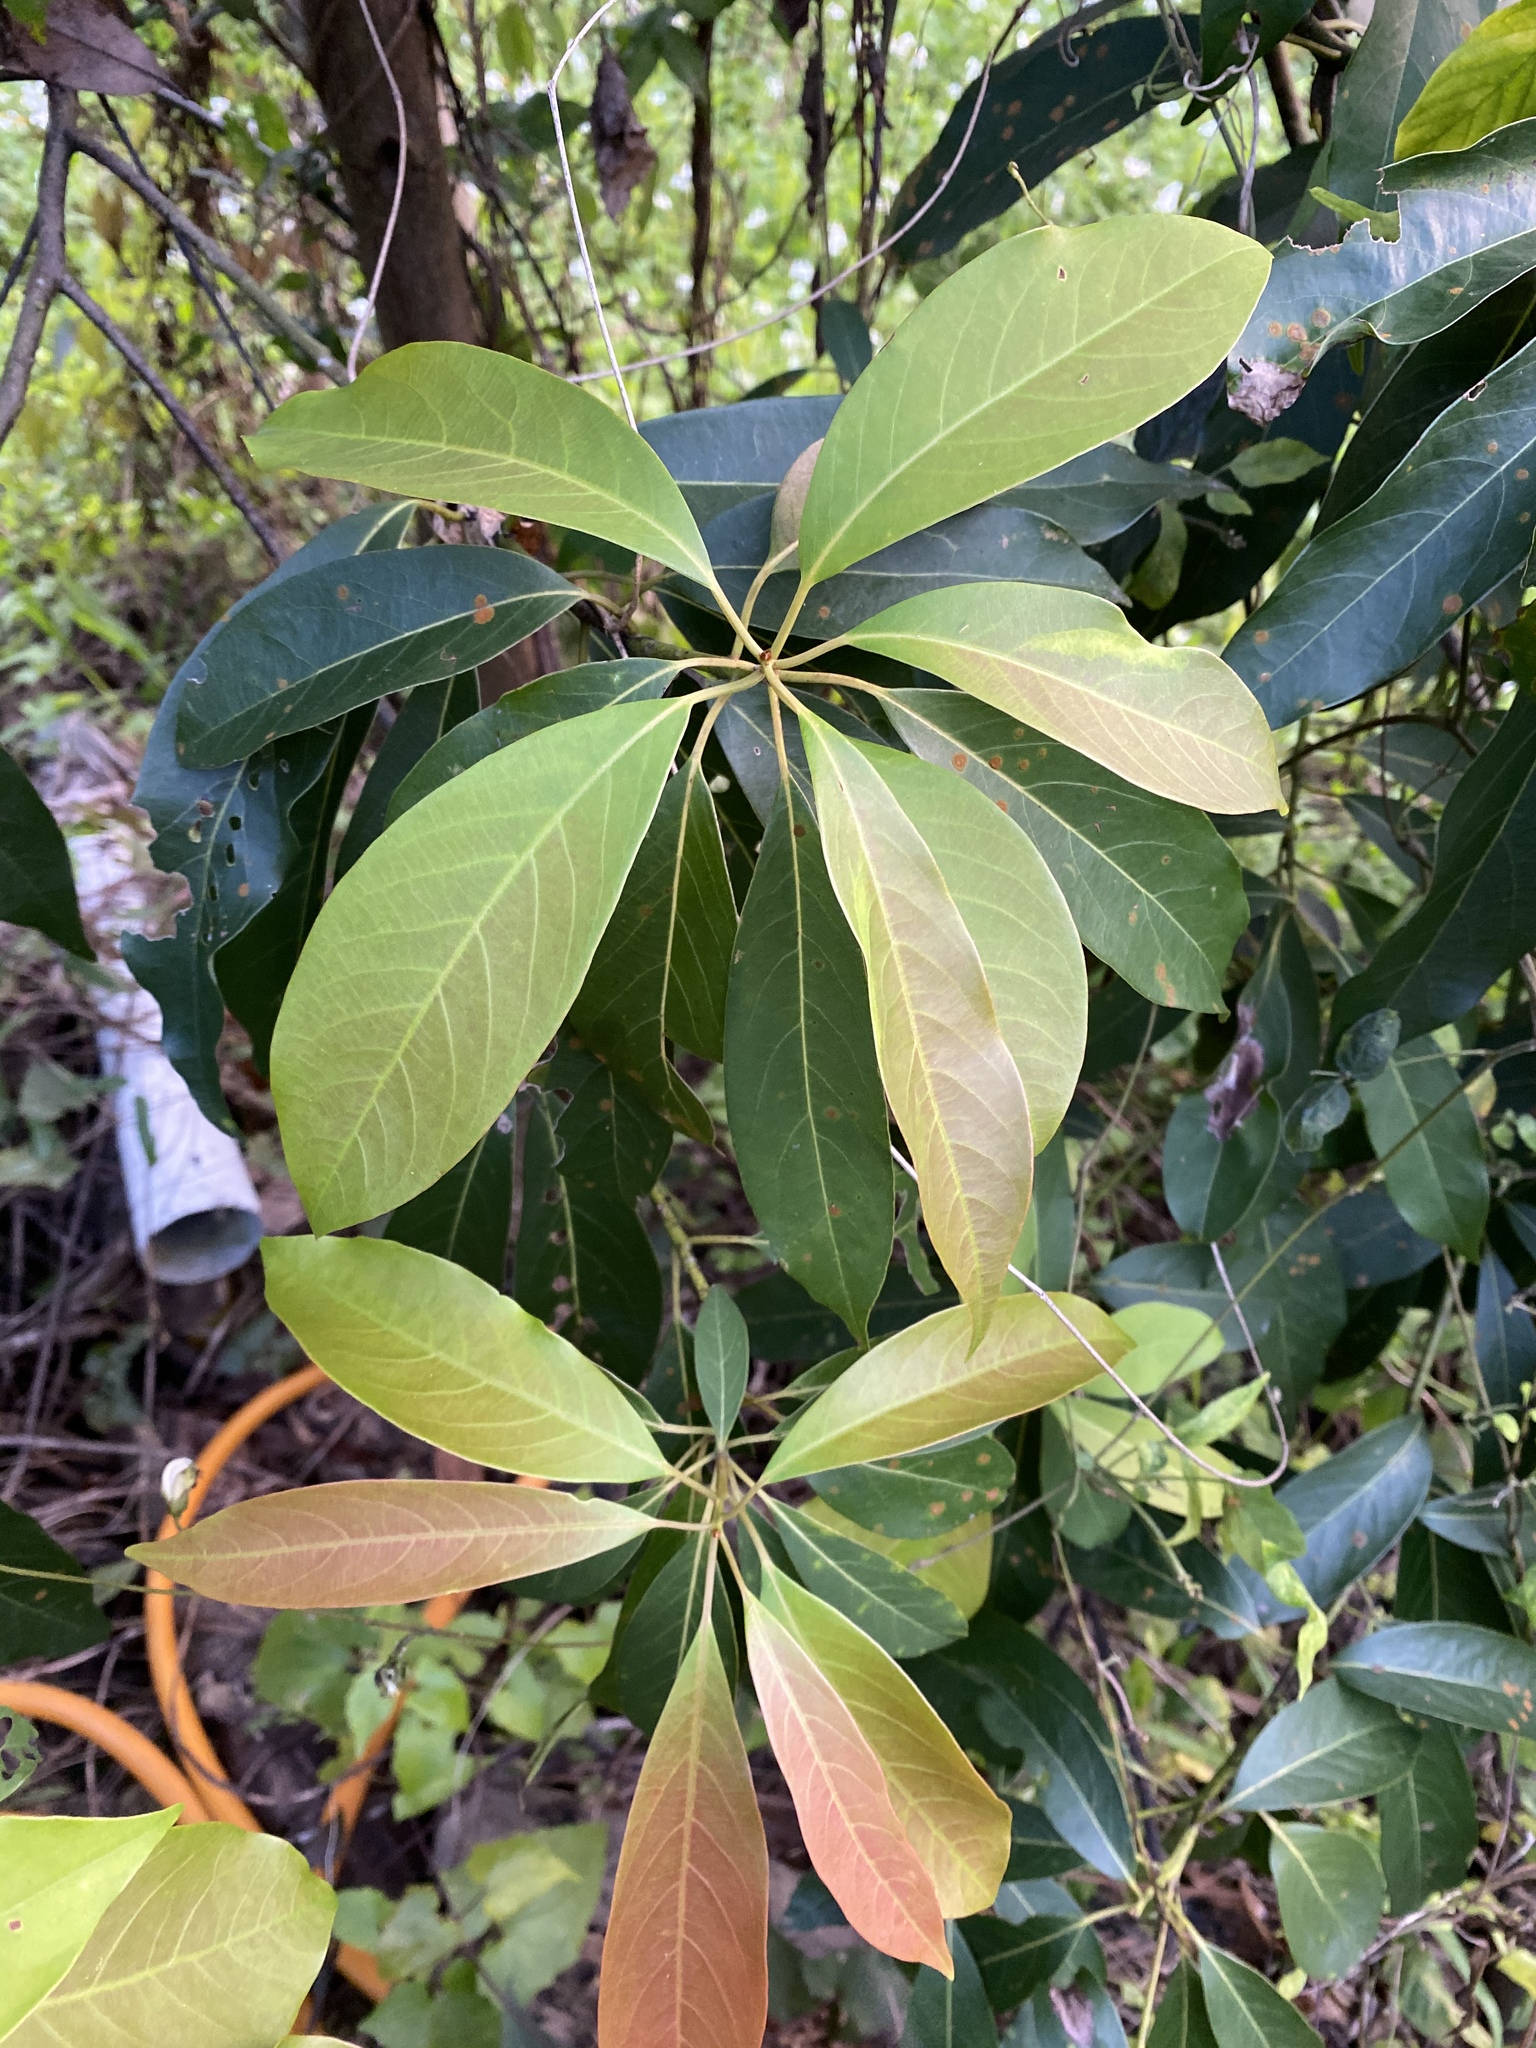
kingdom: Plantae
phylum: Tracheophyta
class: Magnoliopsida
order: Laurales
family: Lauraceae
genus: Machilus
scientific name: Machilus zuihoensis
